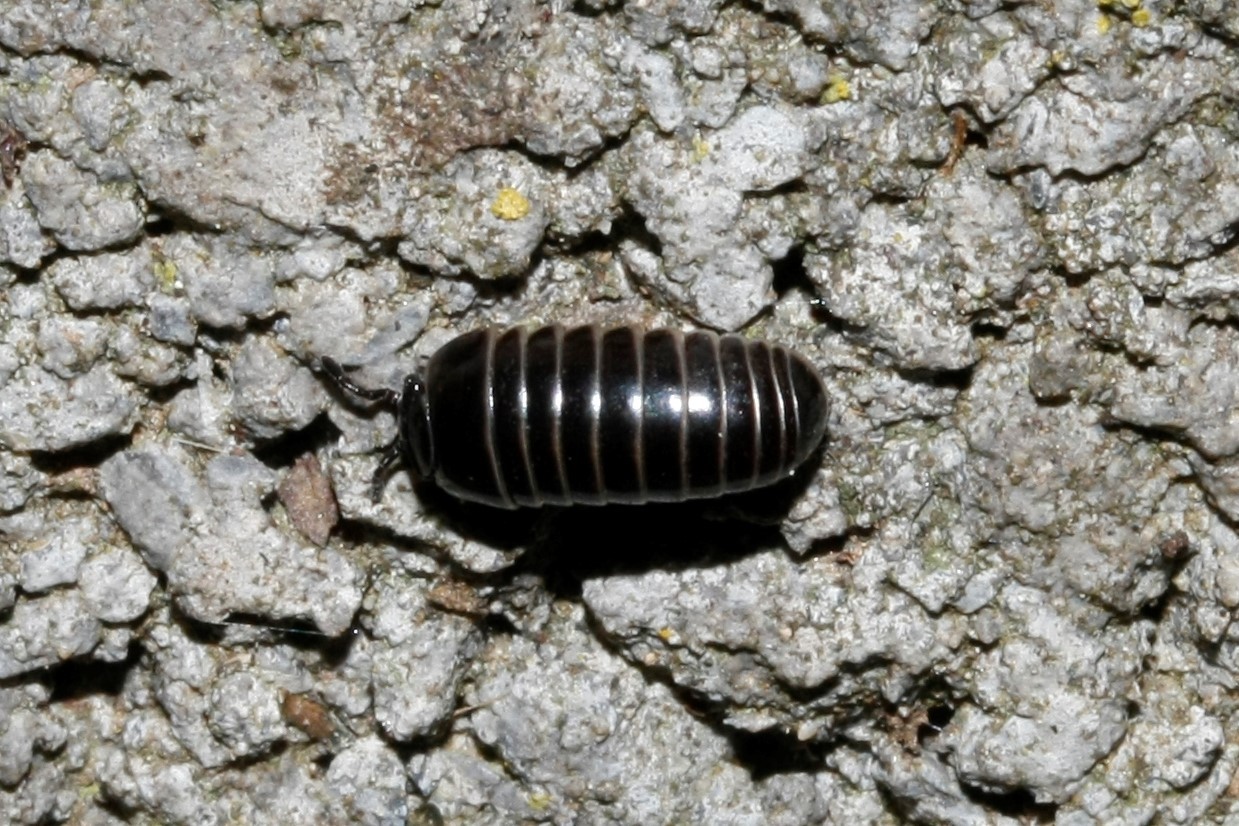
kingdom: Animalia
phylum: Arthropoda
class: Diplopoda
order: Glomerida
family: Glomeridae
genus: Glomeris
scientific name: Glomeris marginata
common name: Bordered pill millipede
